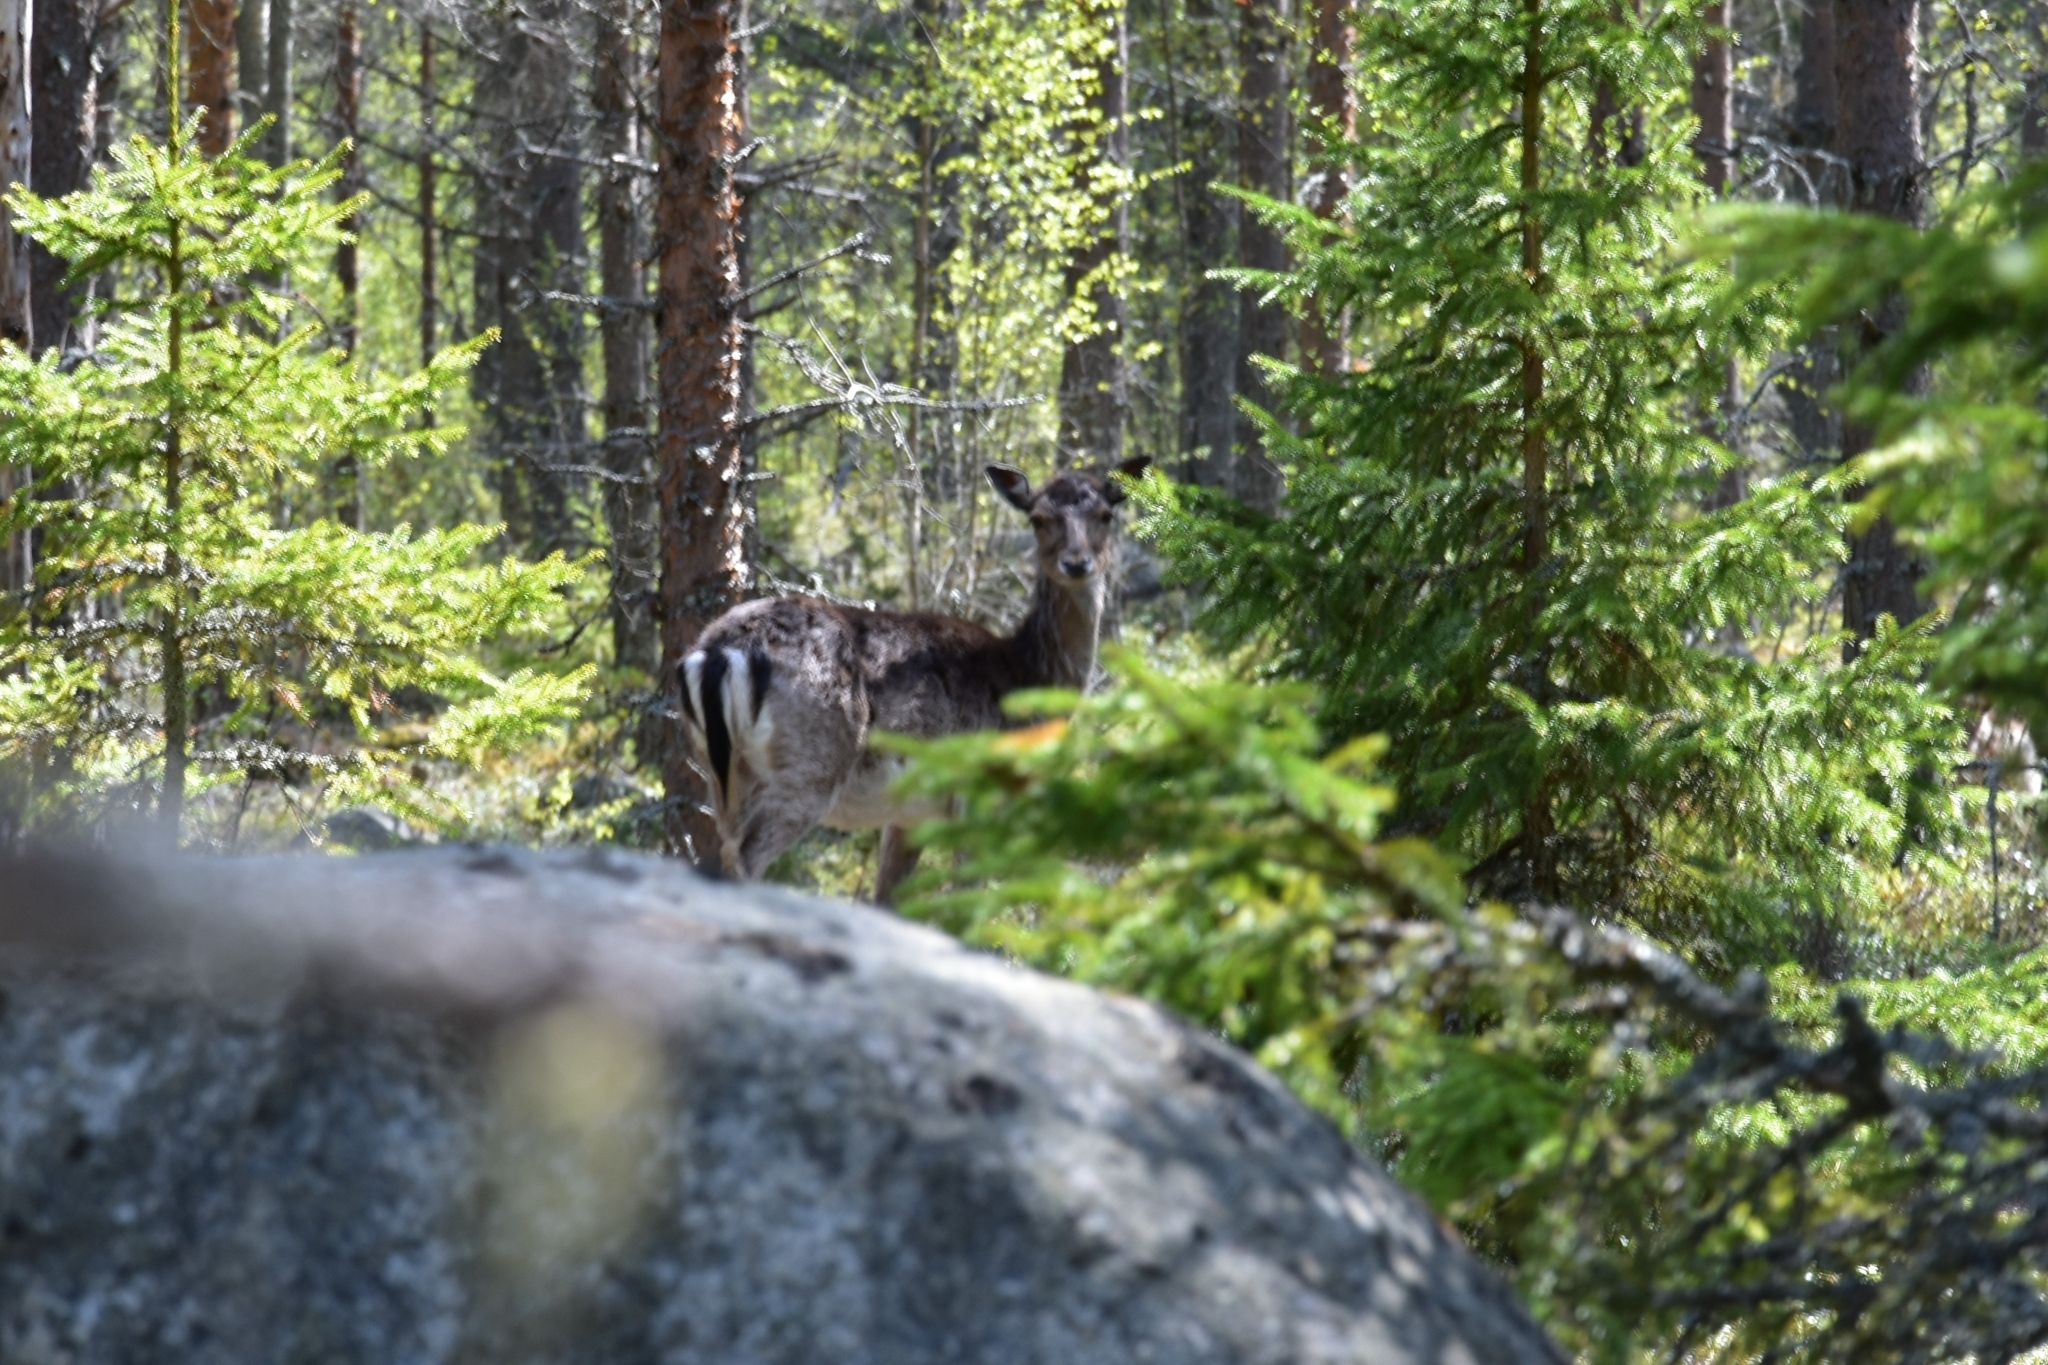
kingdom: Animalia
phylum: Chordata
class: Mammalia
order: Artiodactyla
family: Cervidae
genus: Dama
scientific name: Dama dama
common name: Fallow deer
